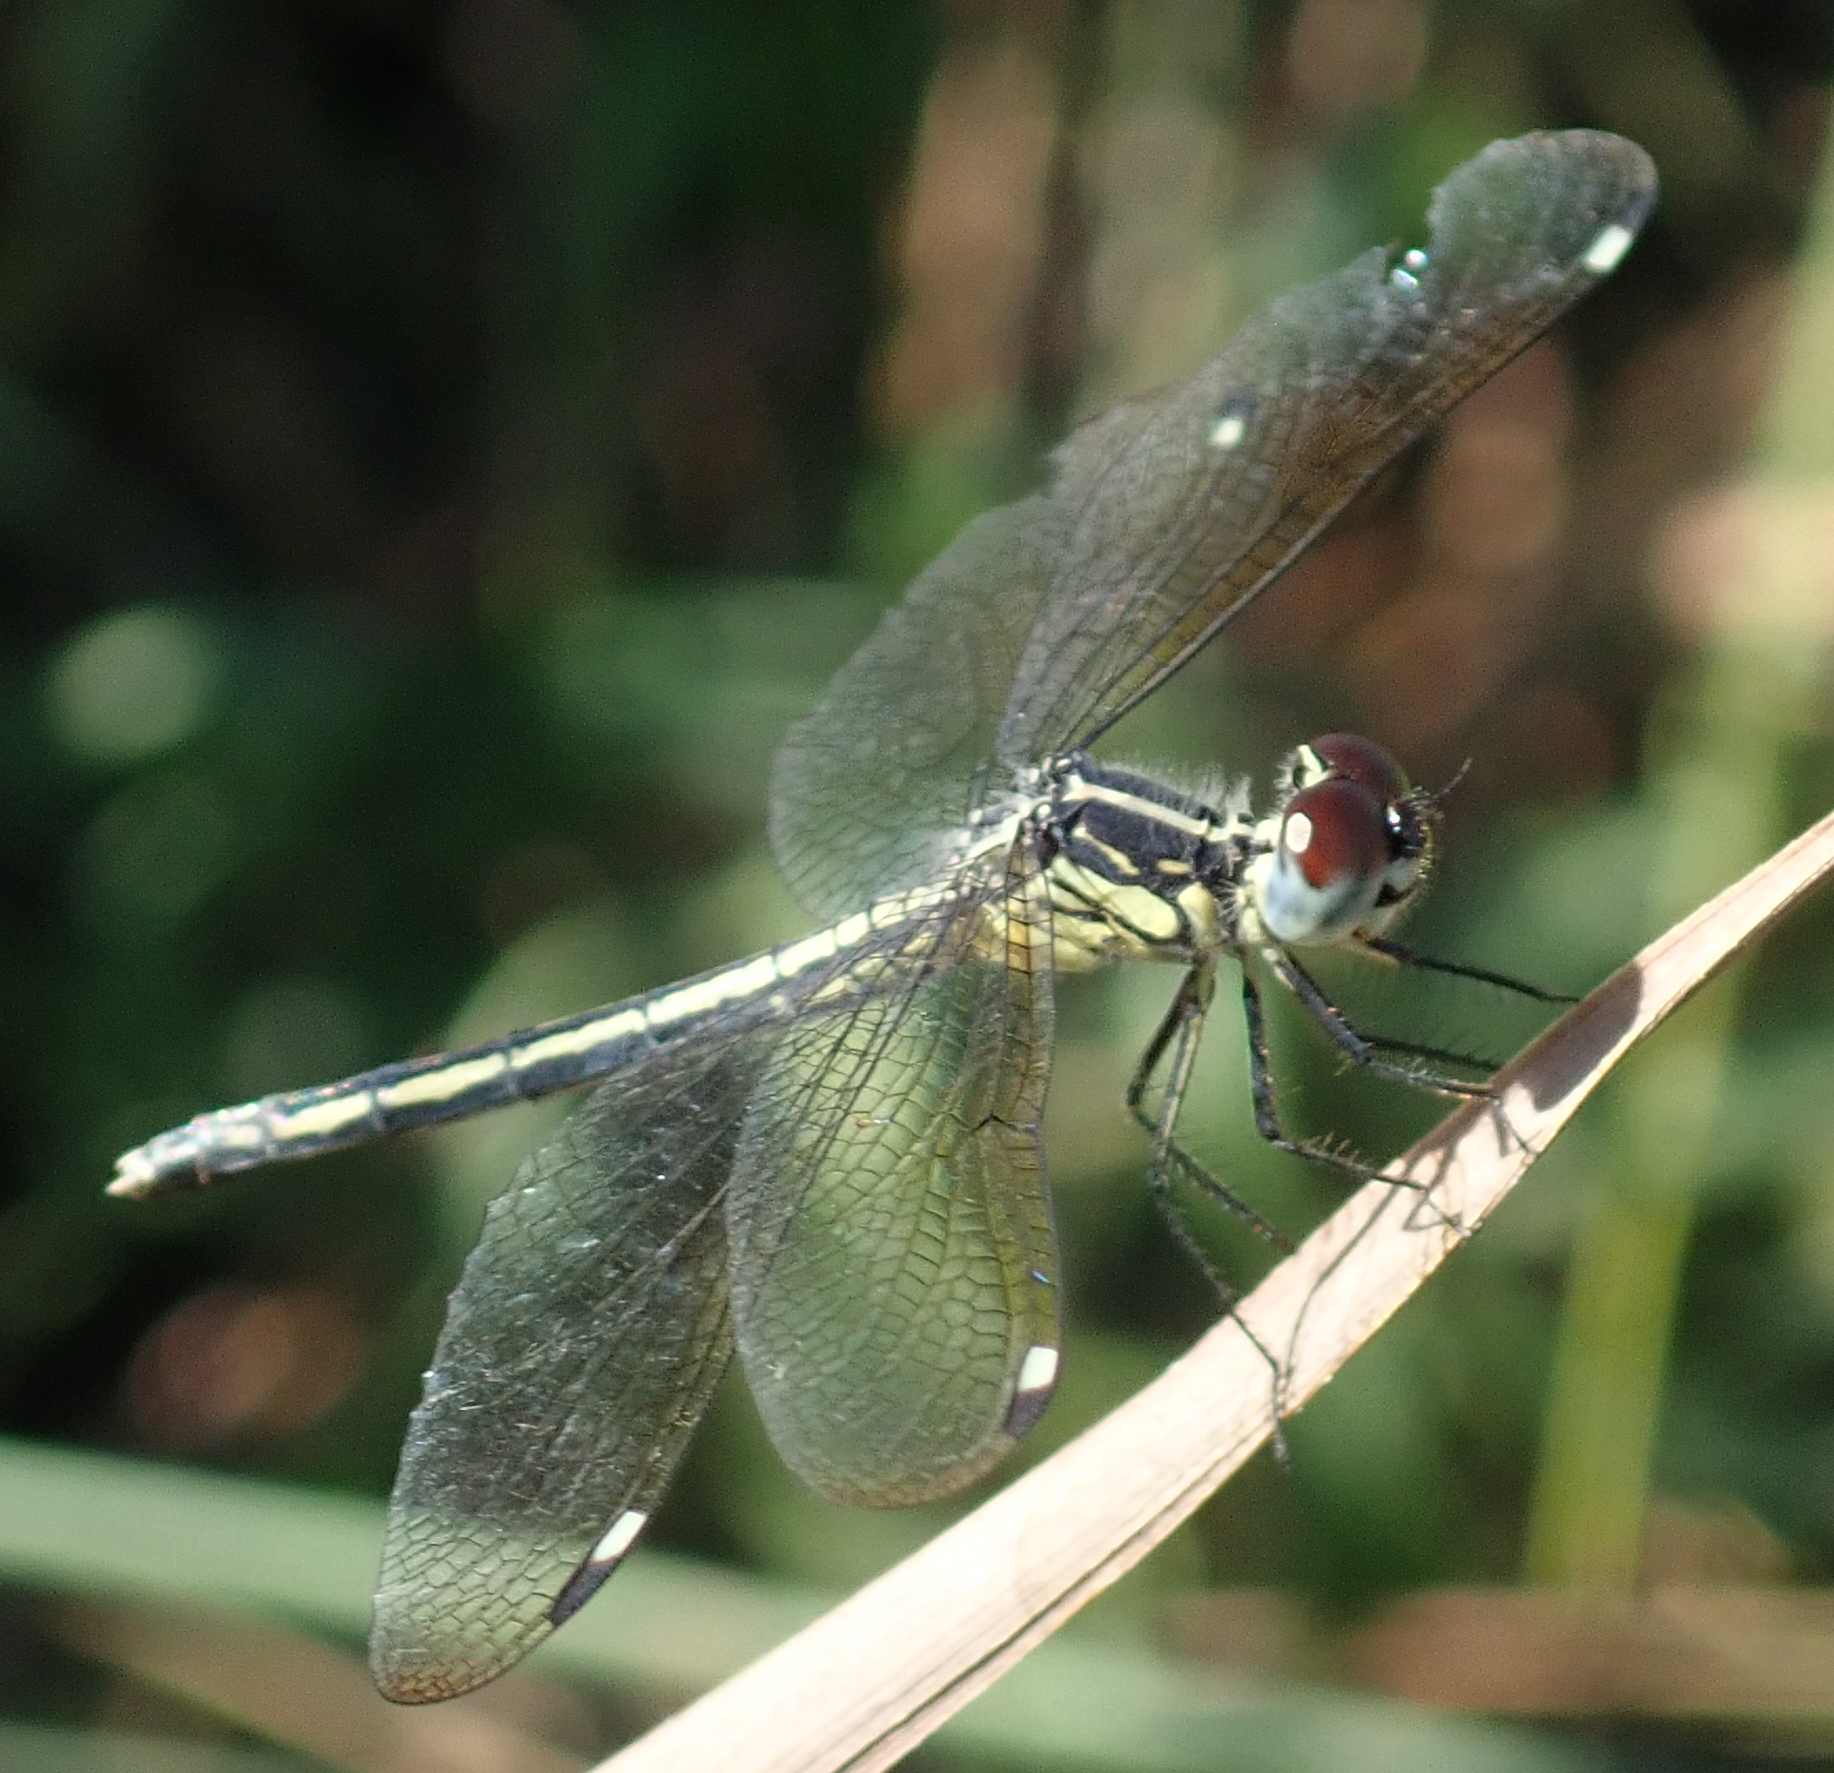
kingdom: Animalia
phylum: Arthropoda
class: Insecta
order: Odonata
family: Libellulidae
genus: Hemistigma
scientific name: Hemistigma albipunctum
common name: African pied-spot
